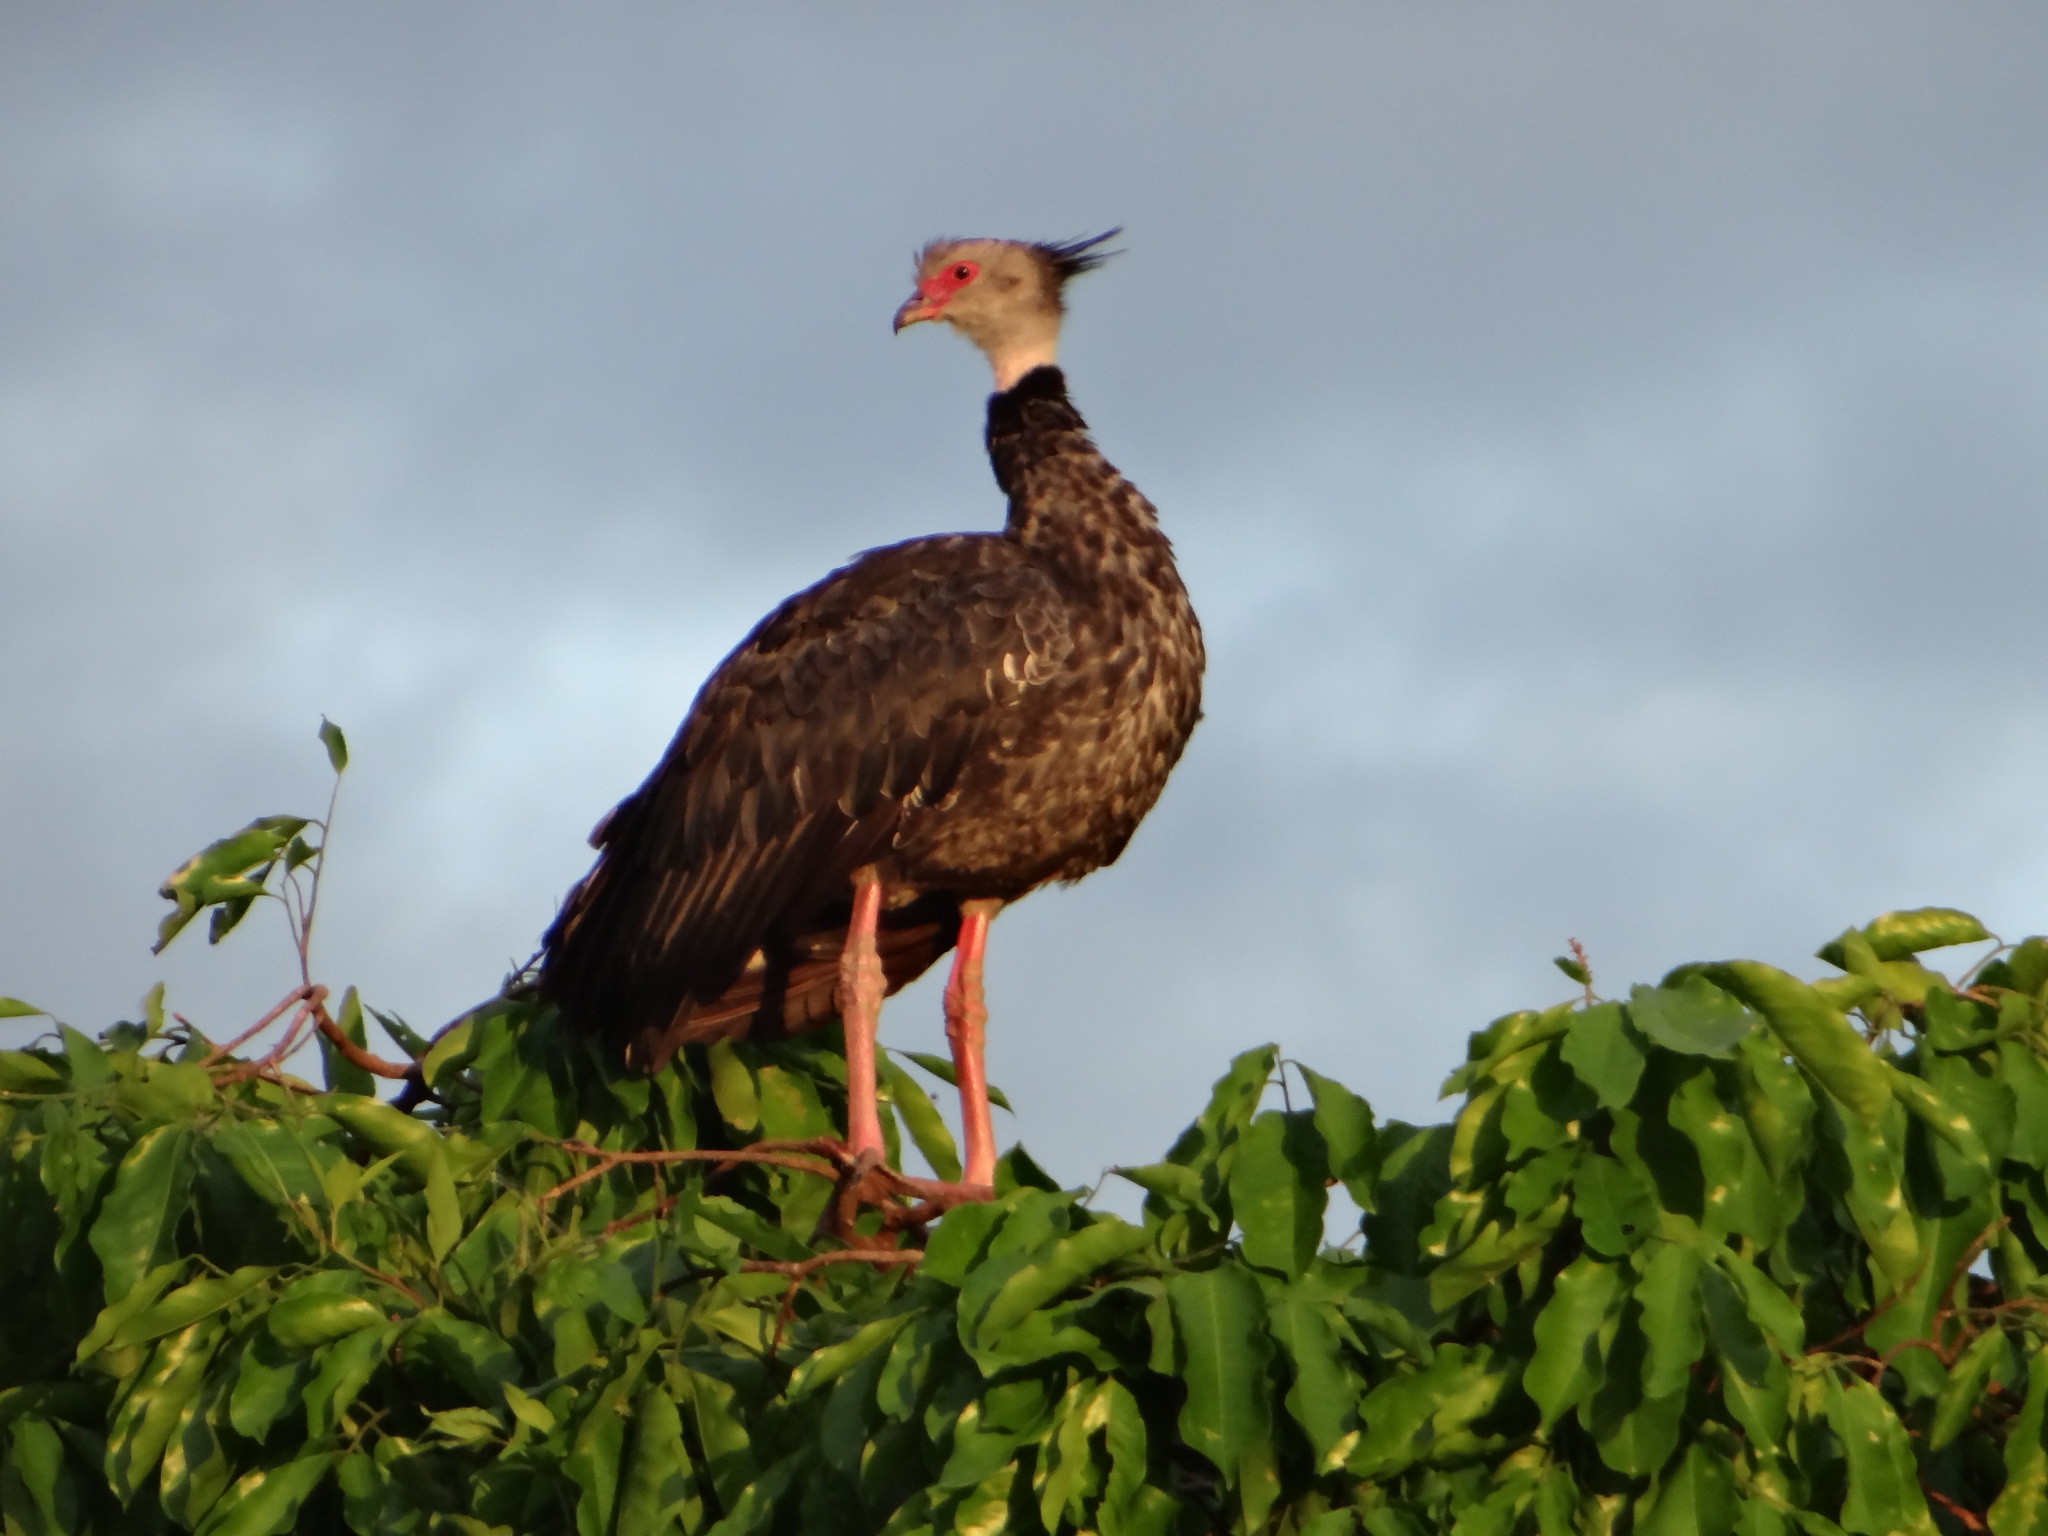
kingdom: Animalia
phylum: Chordata
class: Aves
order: Anseriformes
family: Anhimidae
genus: Chauna
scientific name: Chauna torquata
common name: Southern screamer
